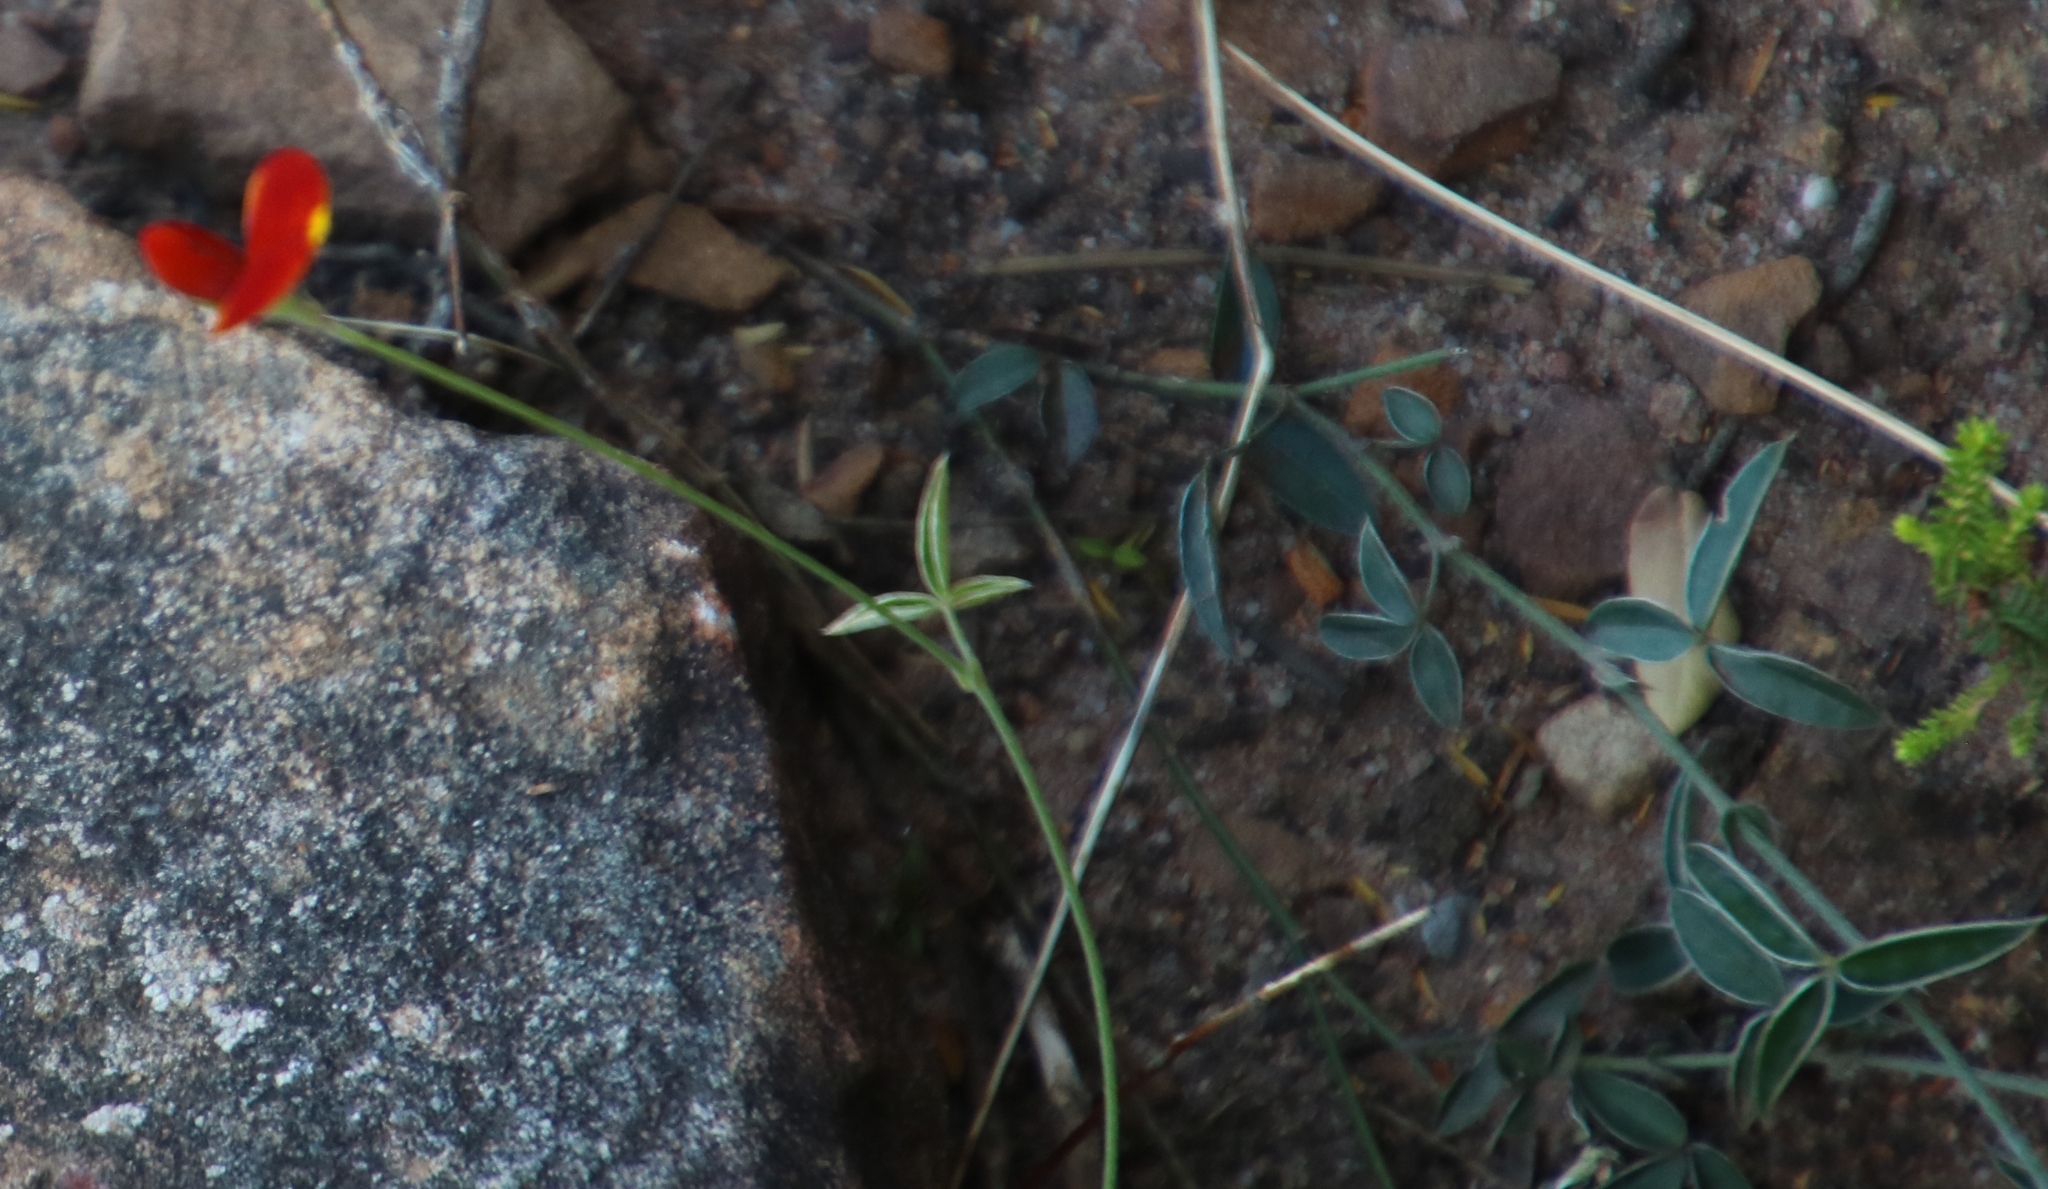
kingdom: Plantae
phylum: Tracheophyta
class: Magnoliopsida
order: Fabales
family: Fabaceae
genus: Argyrolobium
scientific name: Argyrolobium lunare
